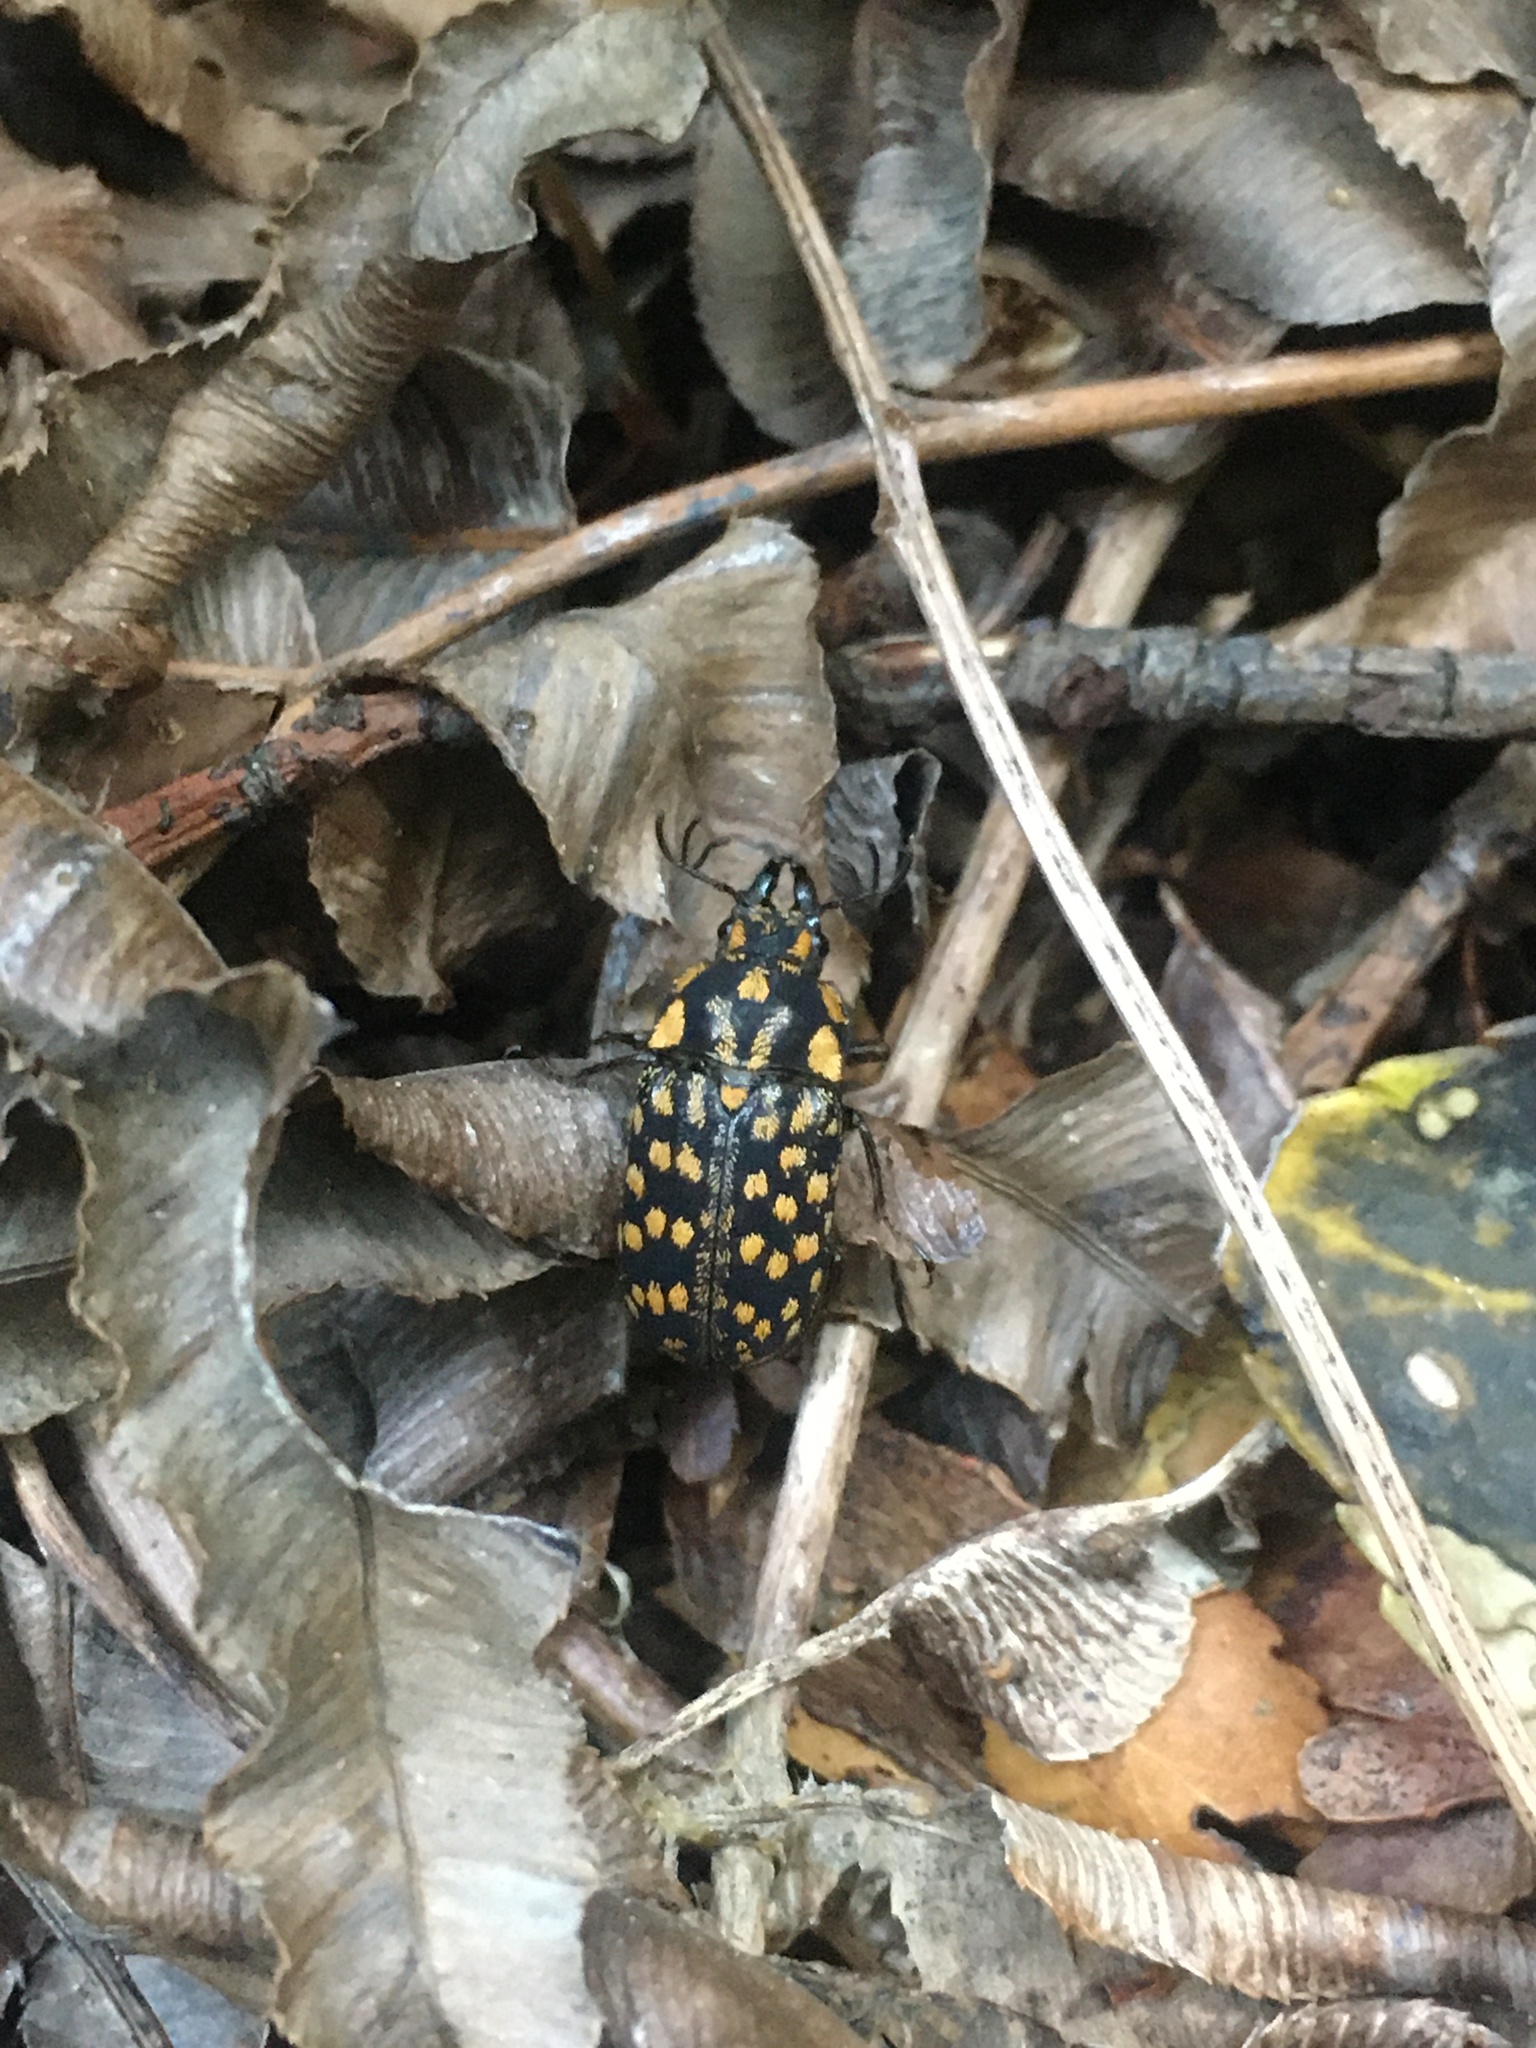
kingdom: Animalia
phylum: Arthropoda
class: Insecta
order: Coleoptera
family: Lucanidae
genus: Mitophyllus
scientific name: Mitophyllus foveolatus
